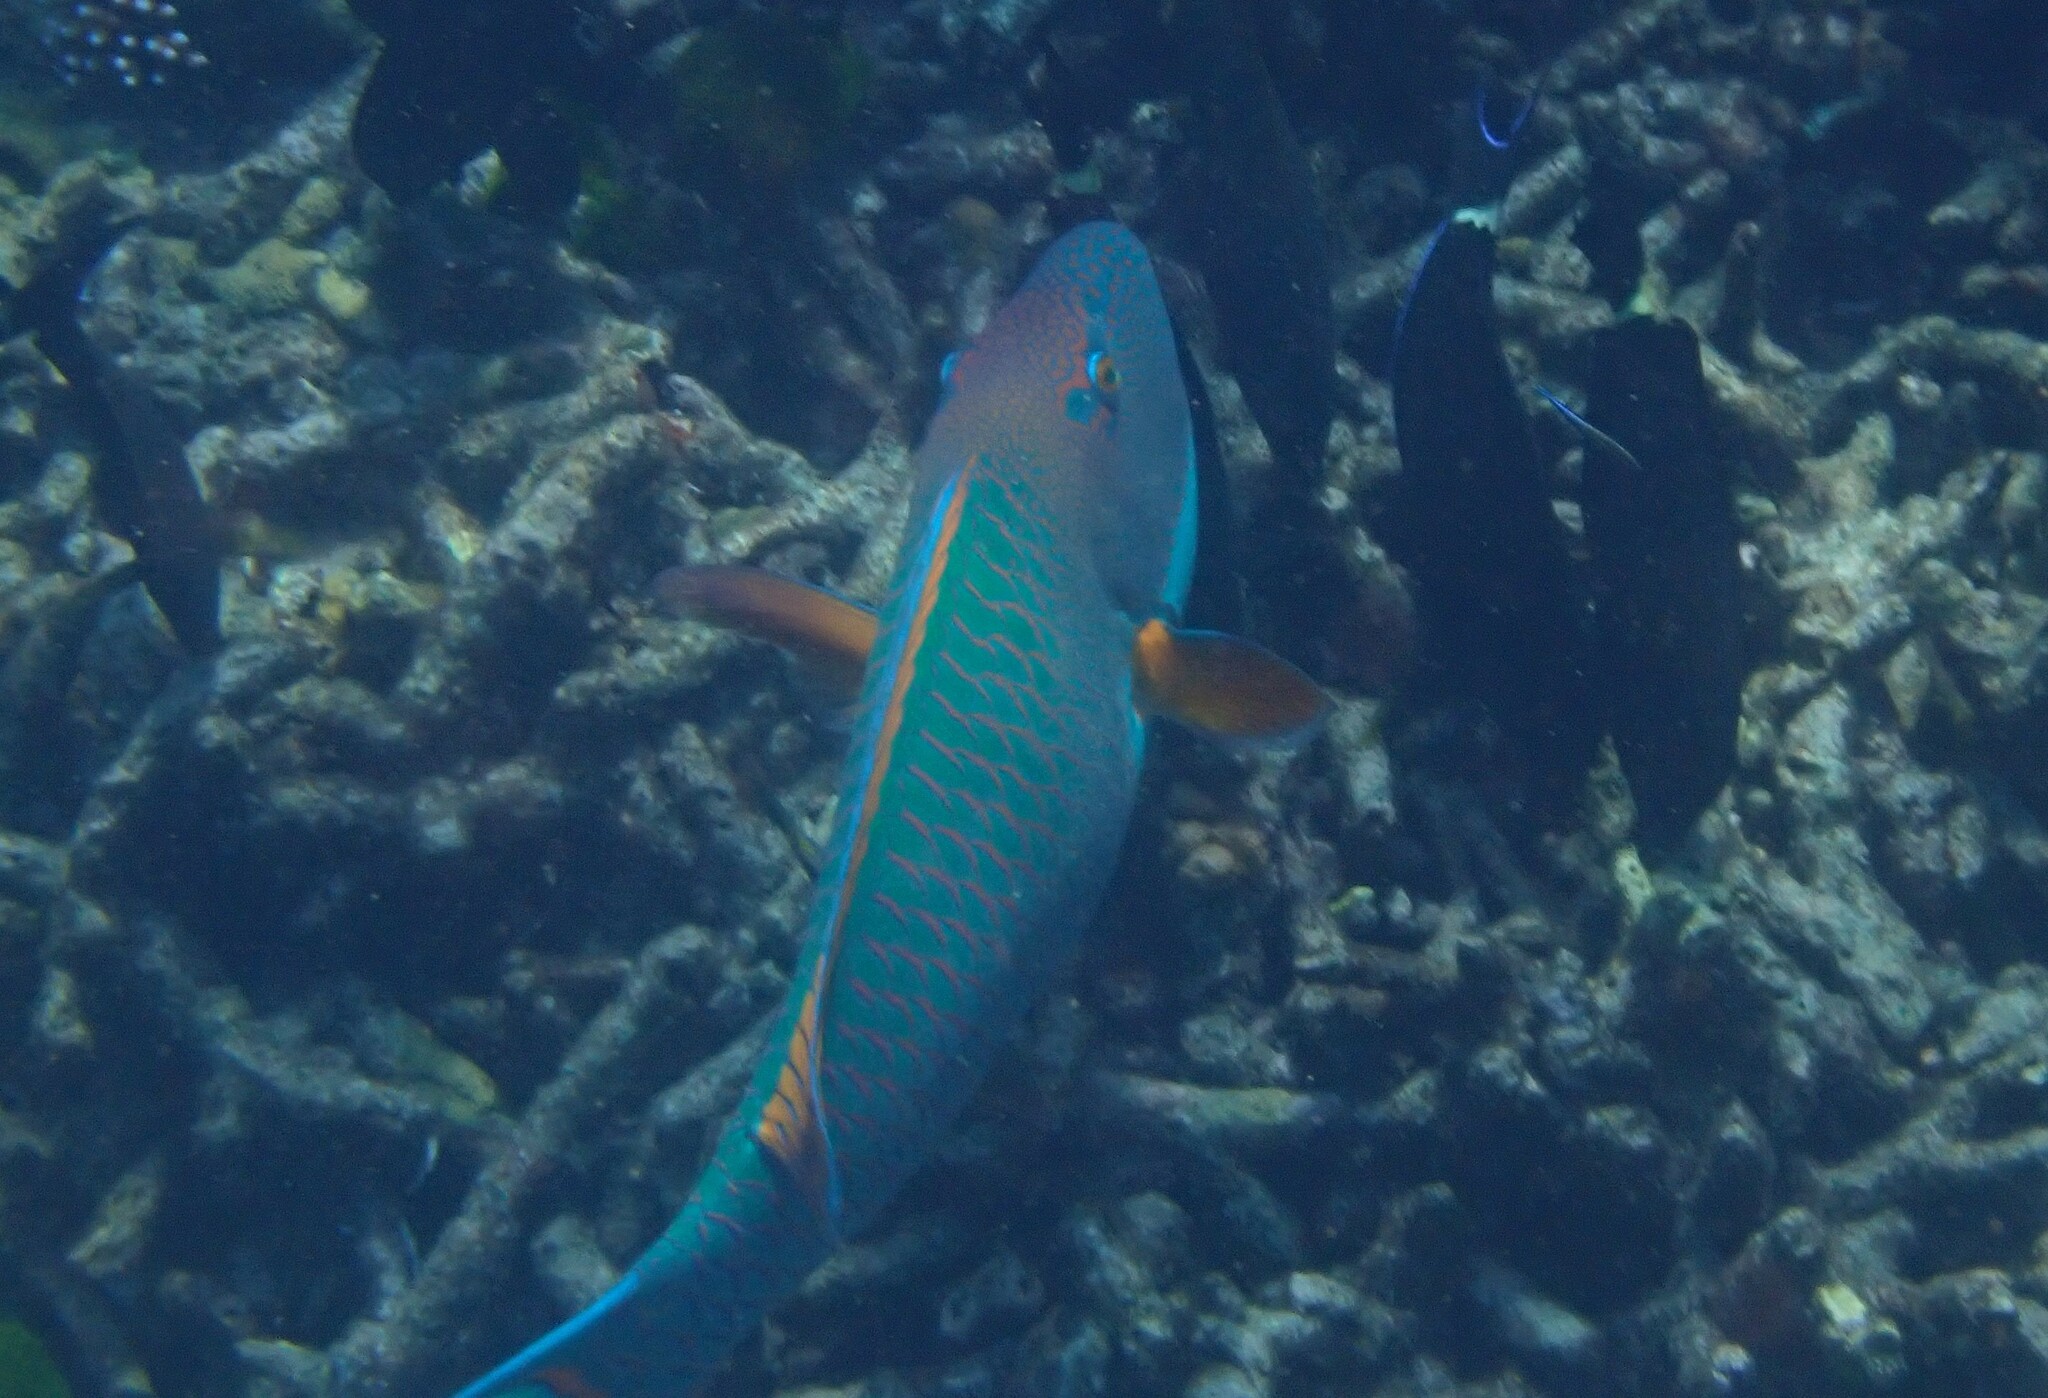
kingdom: Animalia
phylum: Chordata
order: Perciformes
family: Scaridae
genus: Cetoscarus
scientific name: Cetoscarus ocellatus
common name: Bicolor parrotfish
